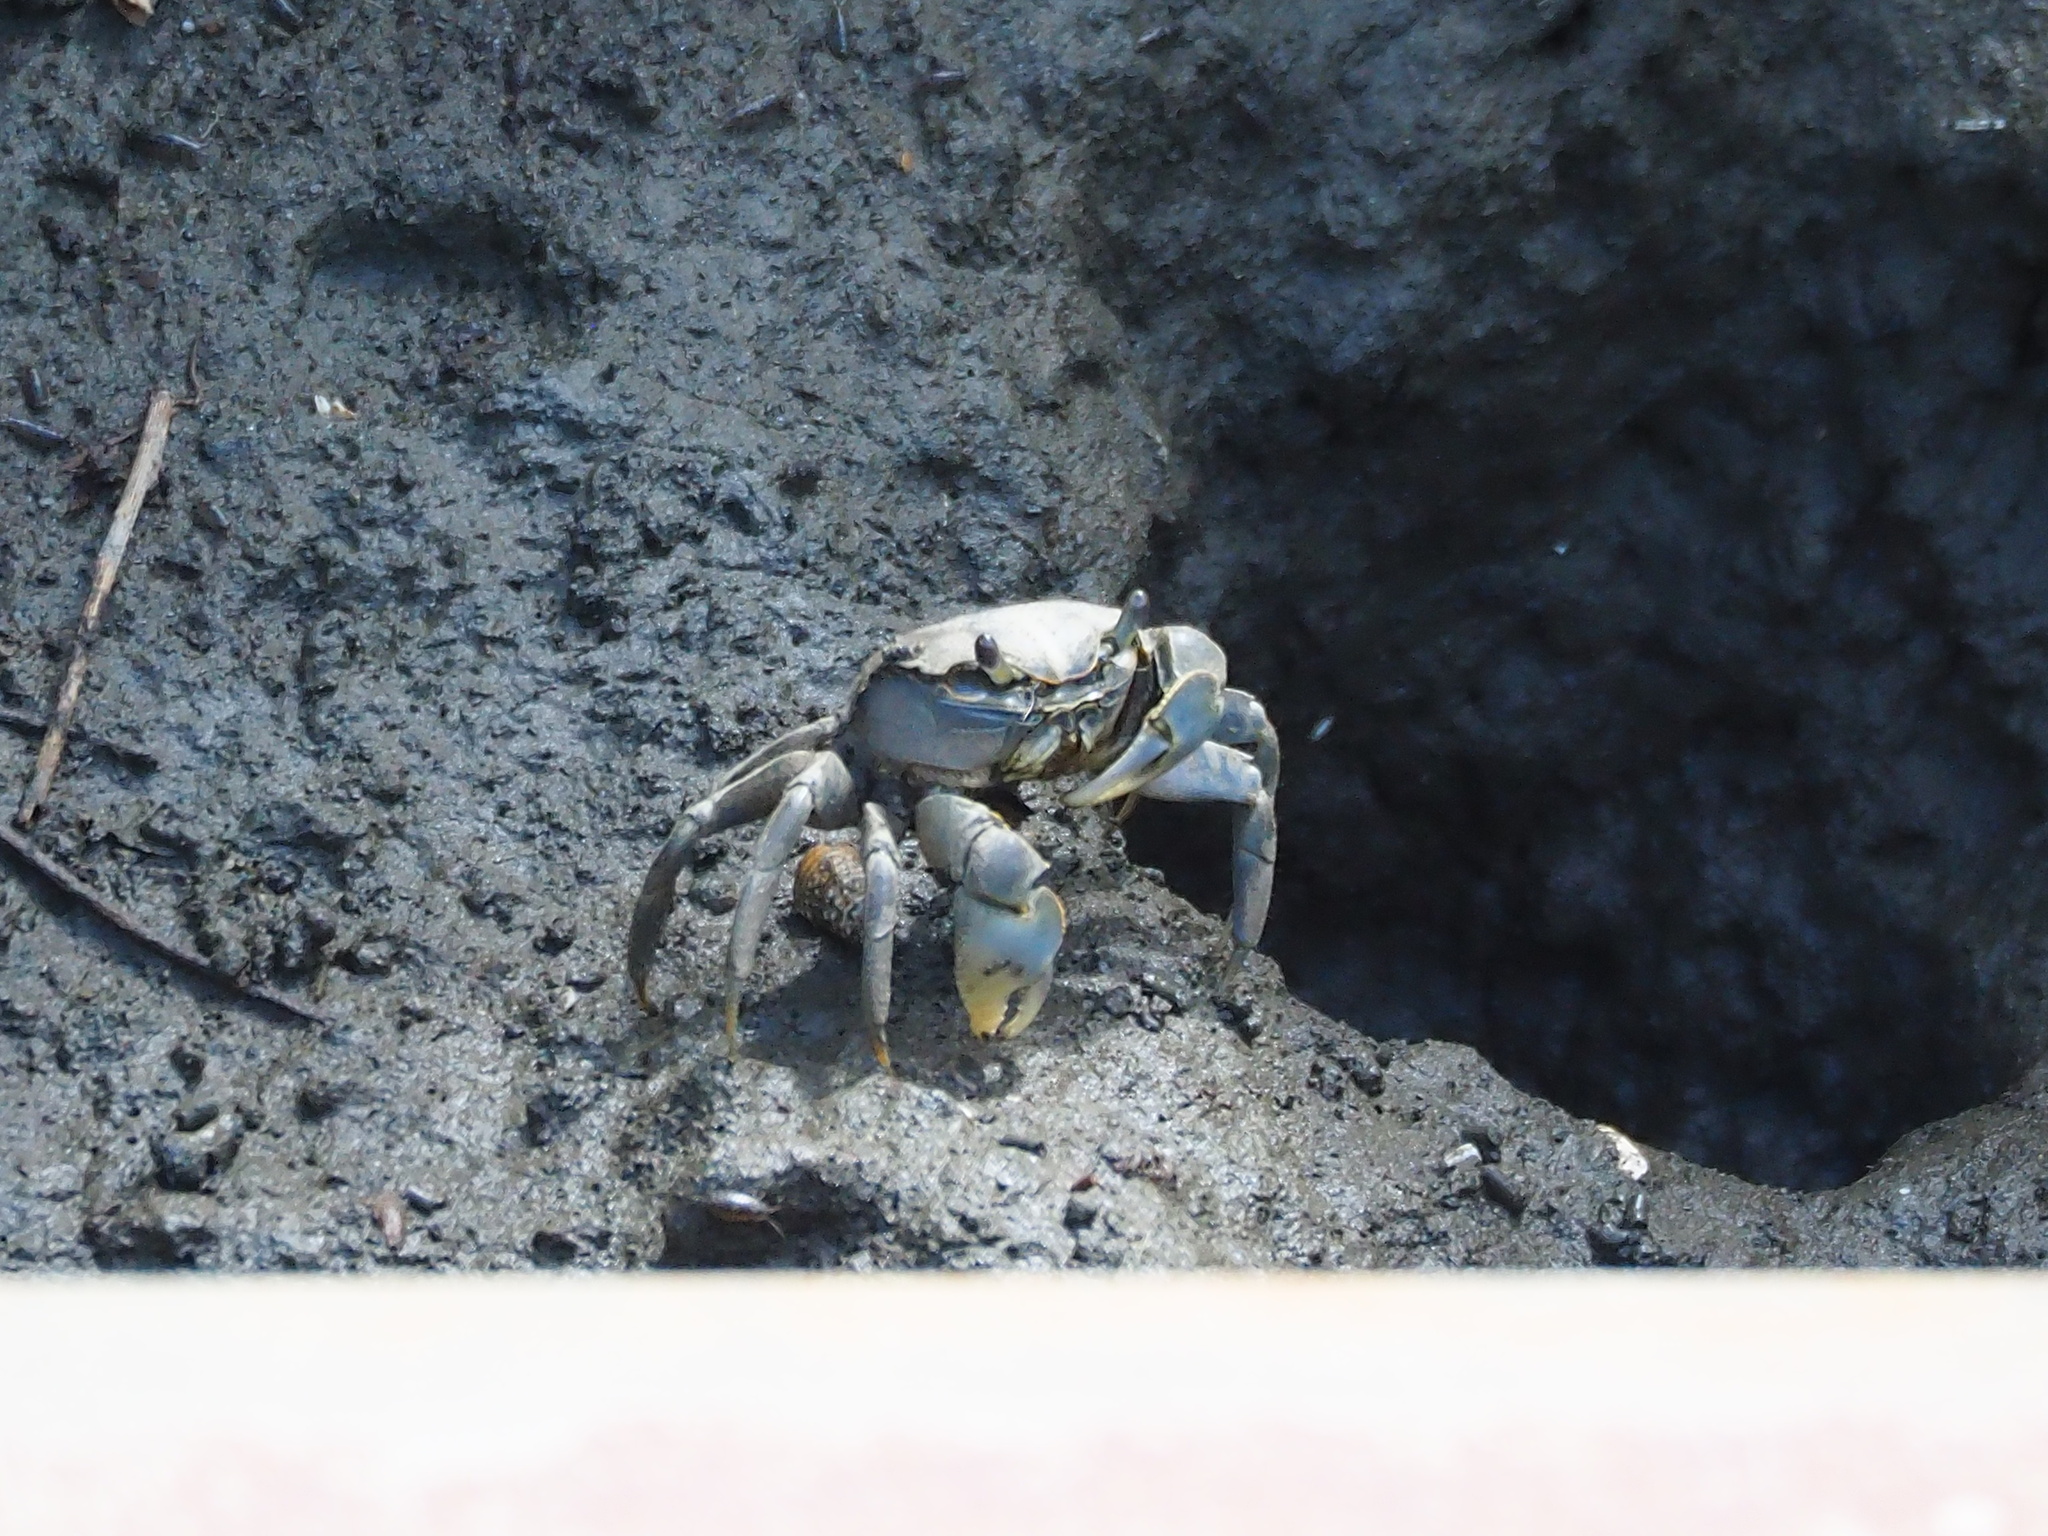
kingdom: Animalia
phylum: Arthropoda
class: Malacostraca
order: Decapoda
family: Varunidae
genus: Helice
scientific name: Helice formosensis
